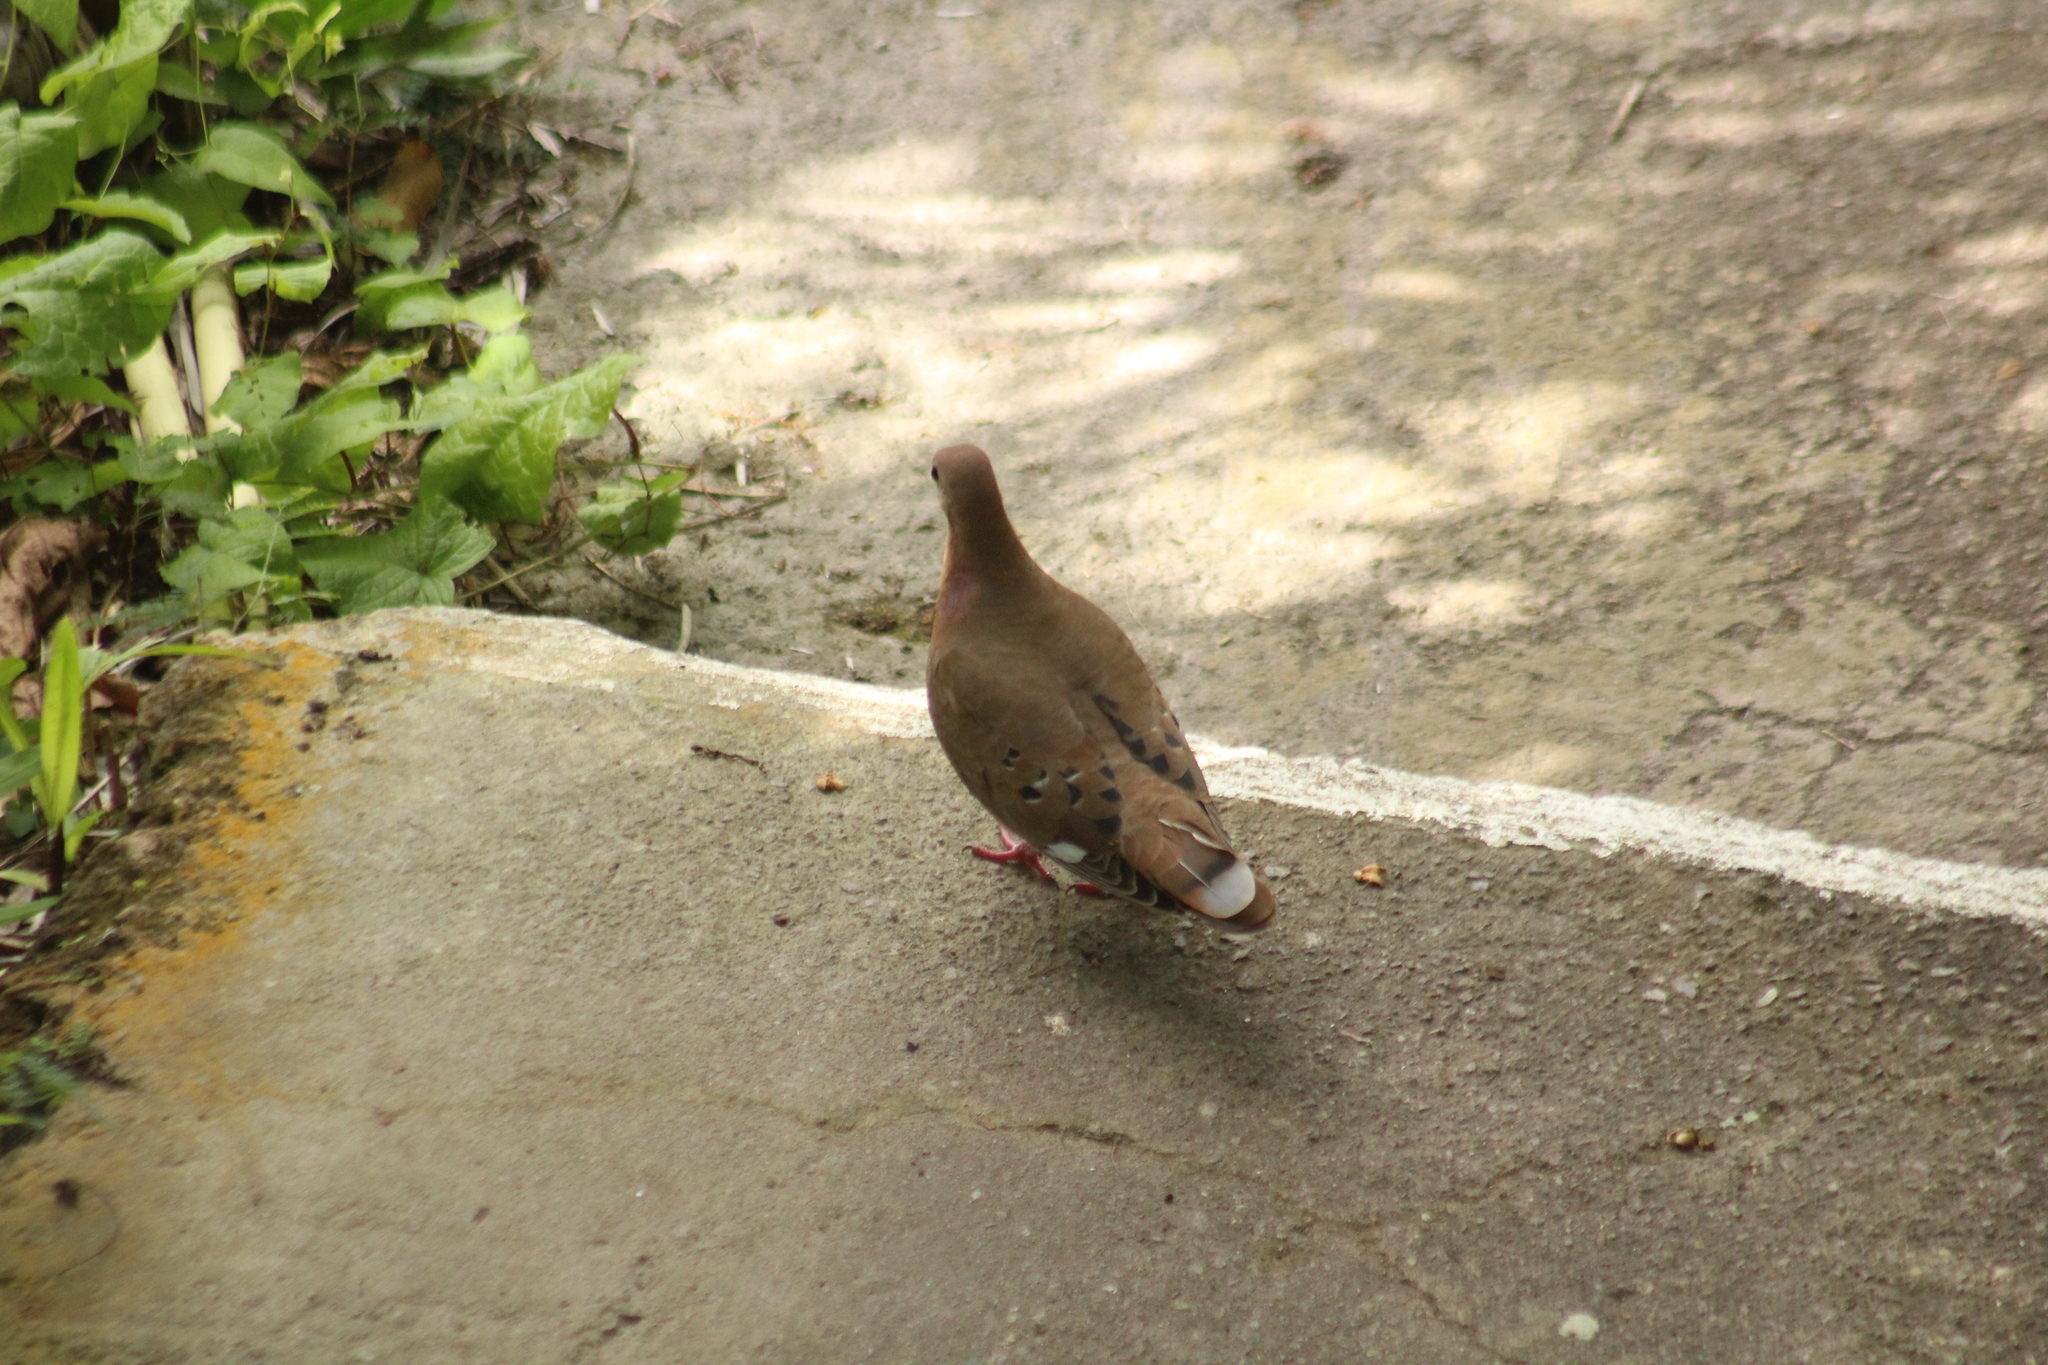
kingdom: Animalia
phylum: Chordata
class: Aves
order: Columbiformes
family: Columbidae
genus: Zenaida
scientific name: Zenaida aurita
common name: Zenaida dove
